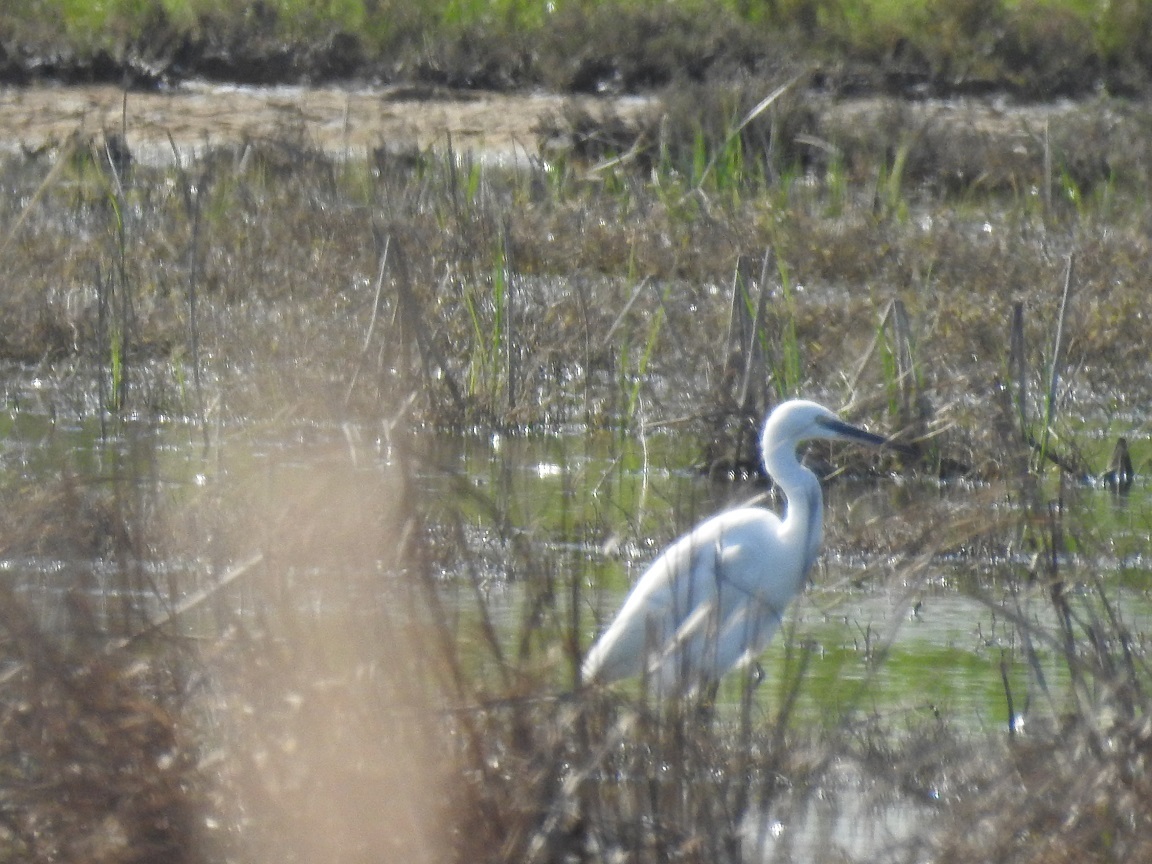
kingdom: Animalia
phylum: Chordata
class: Aves
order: Pelecaniformes
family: Ardeidae
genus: Egretta
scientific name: Egretta garzetta
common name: Little egret
